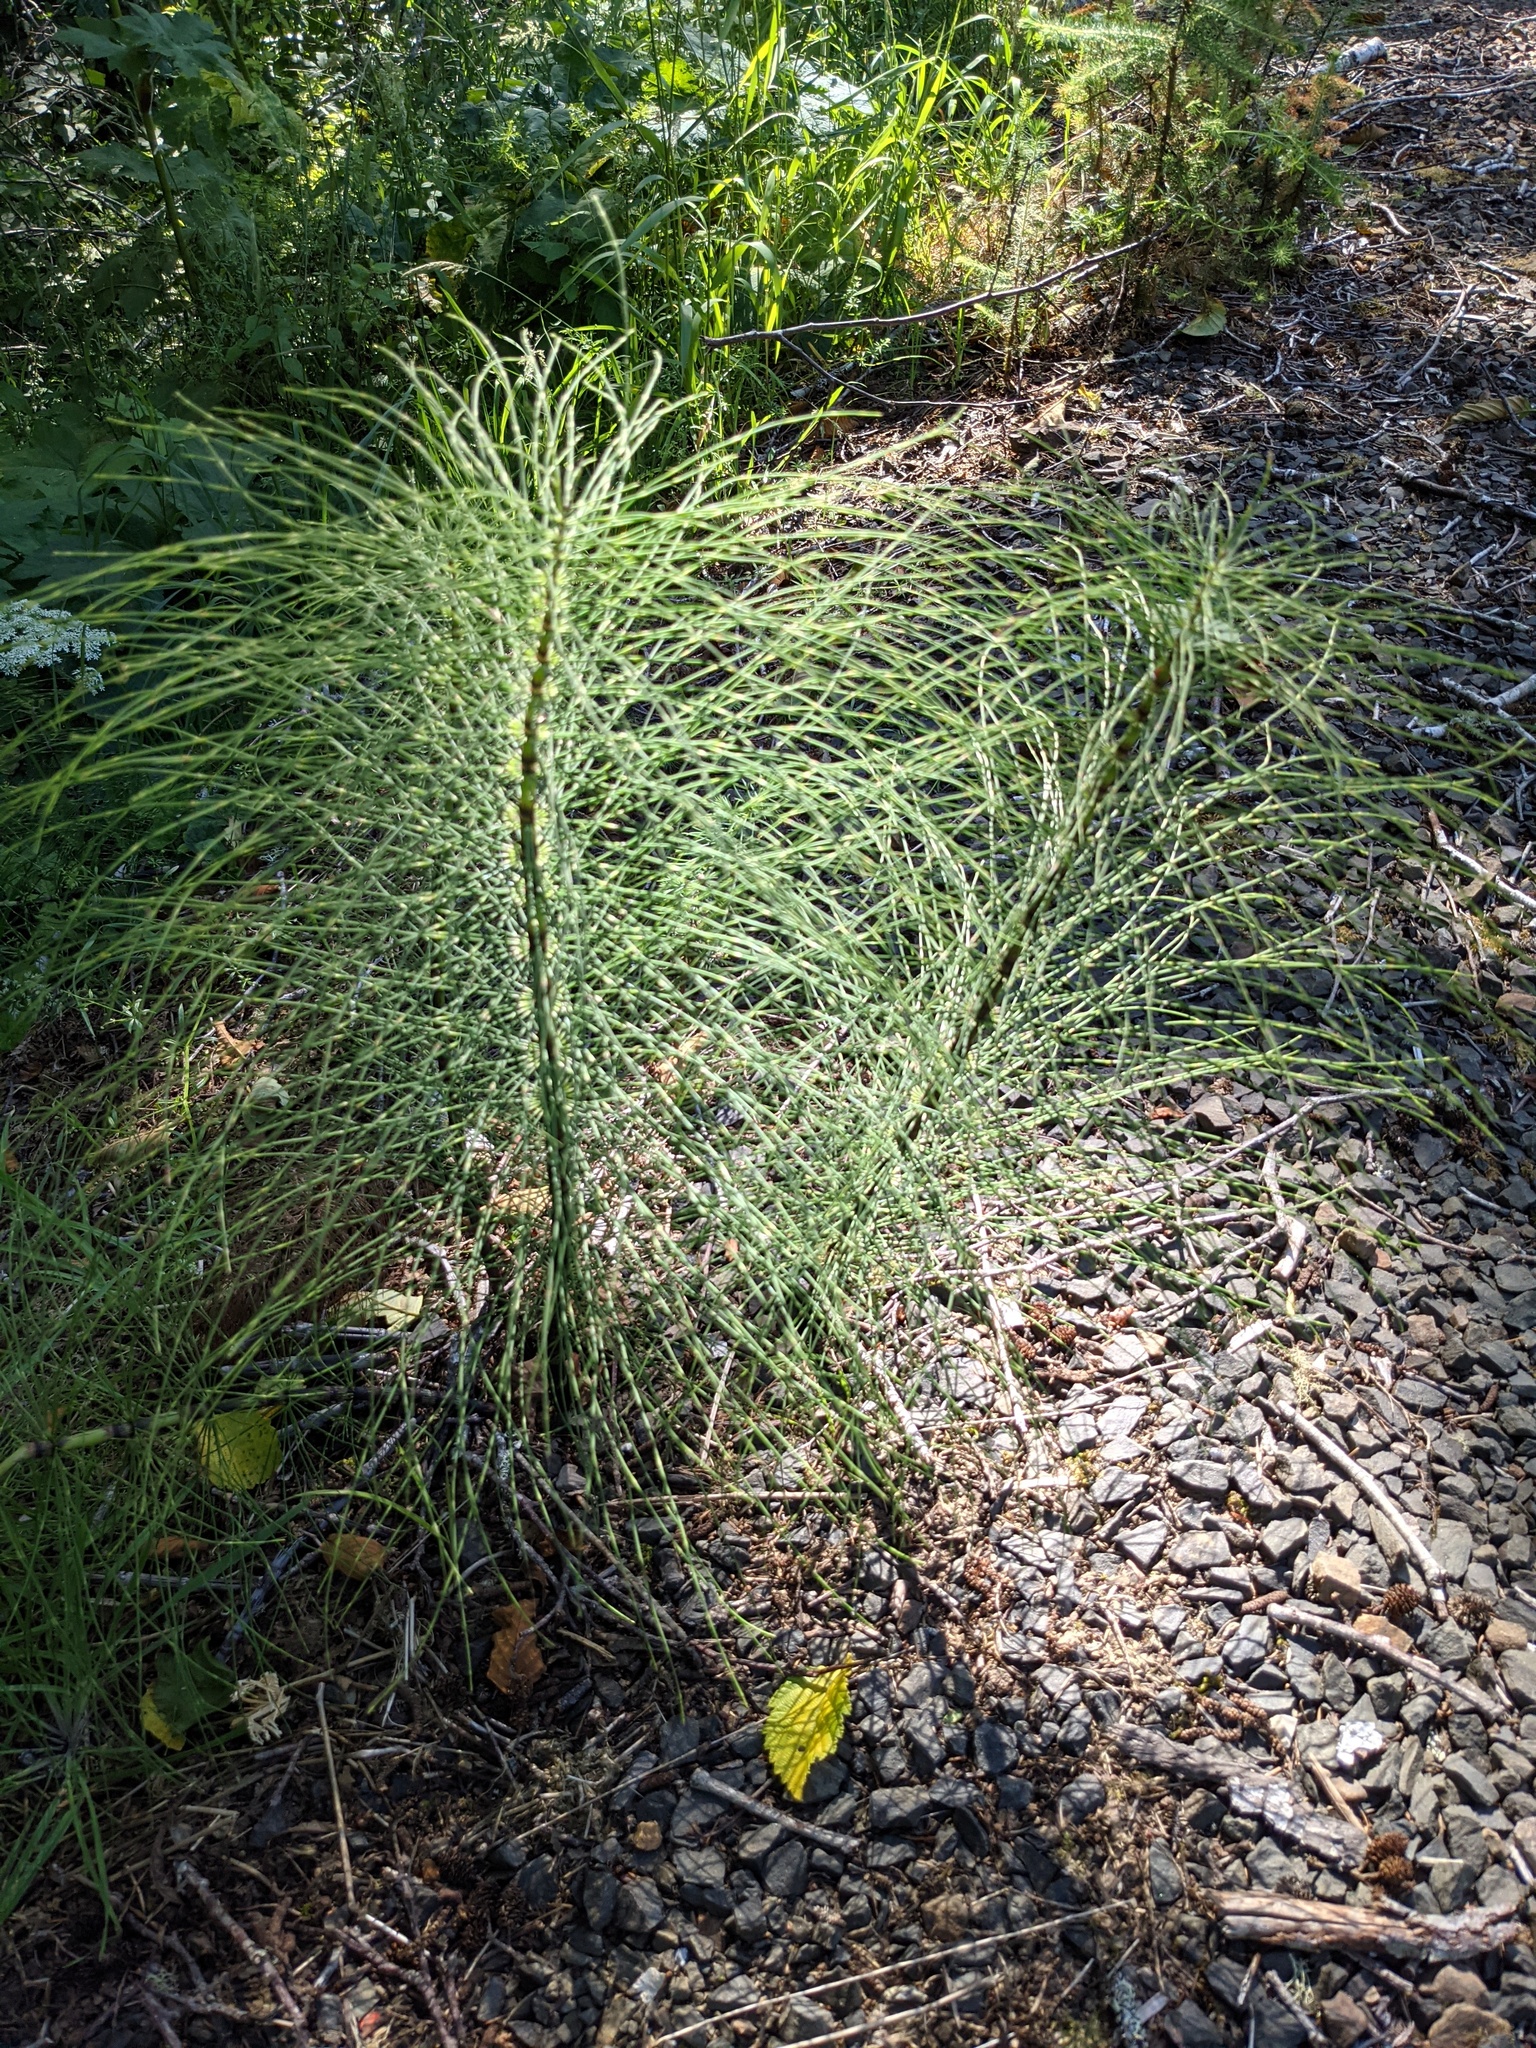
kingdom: Plantae
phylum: Tracheophyta
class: Polypodiopsida
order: Equisetales
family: Equisetaceae
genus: Equisetum
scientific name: Equisetum braunii
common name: Braun's horsetail
